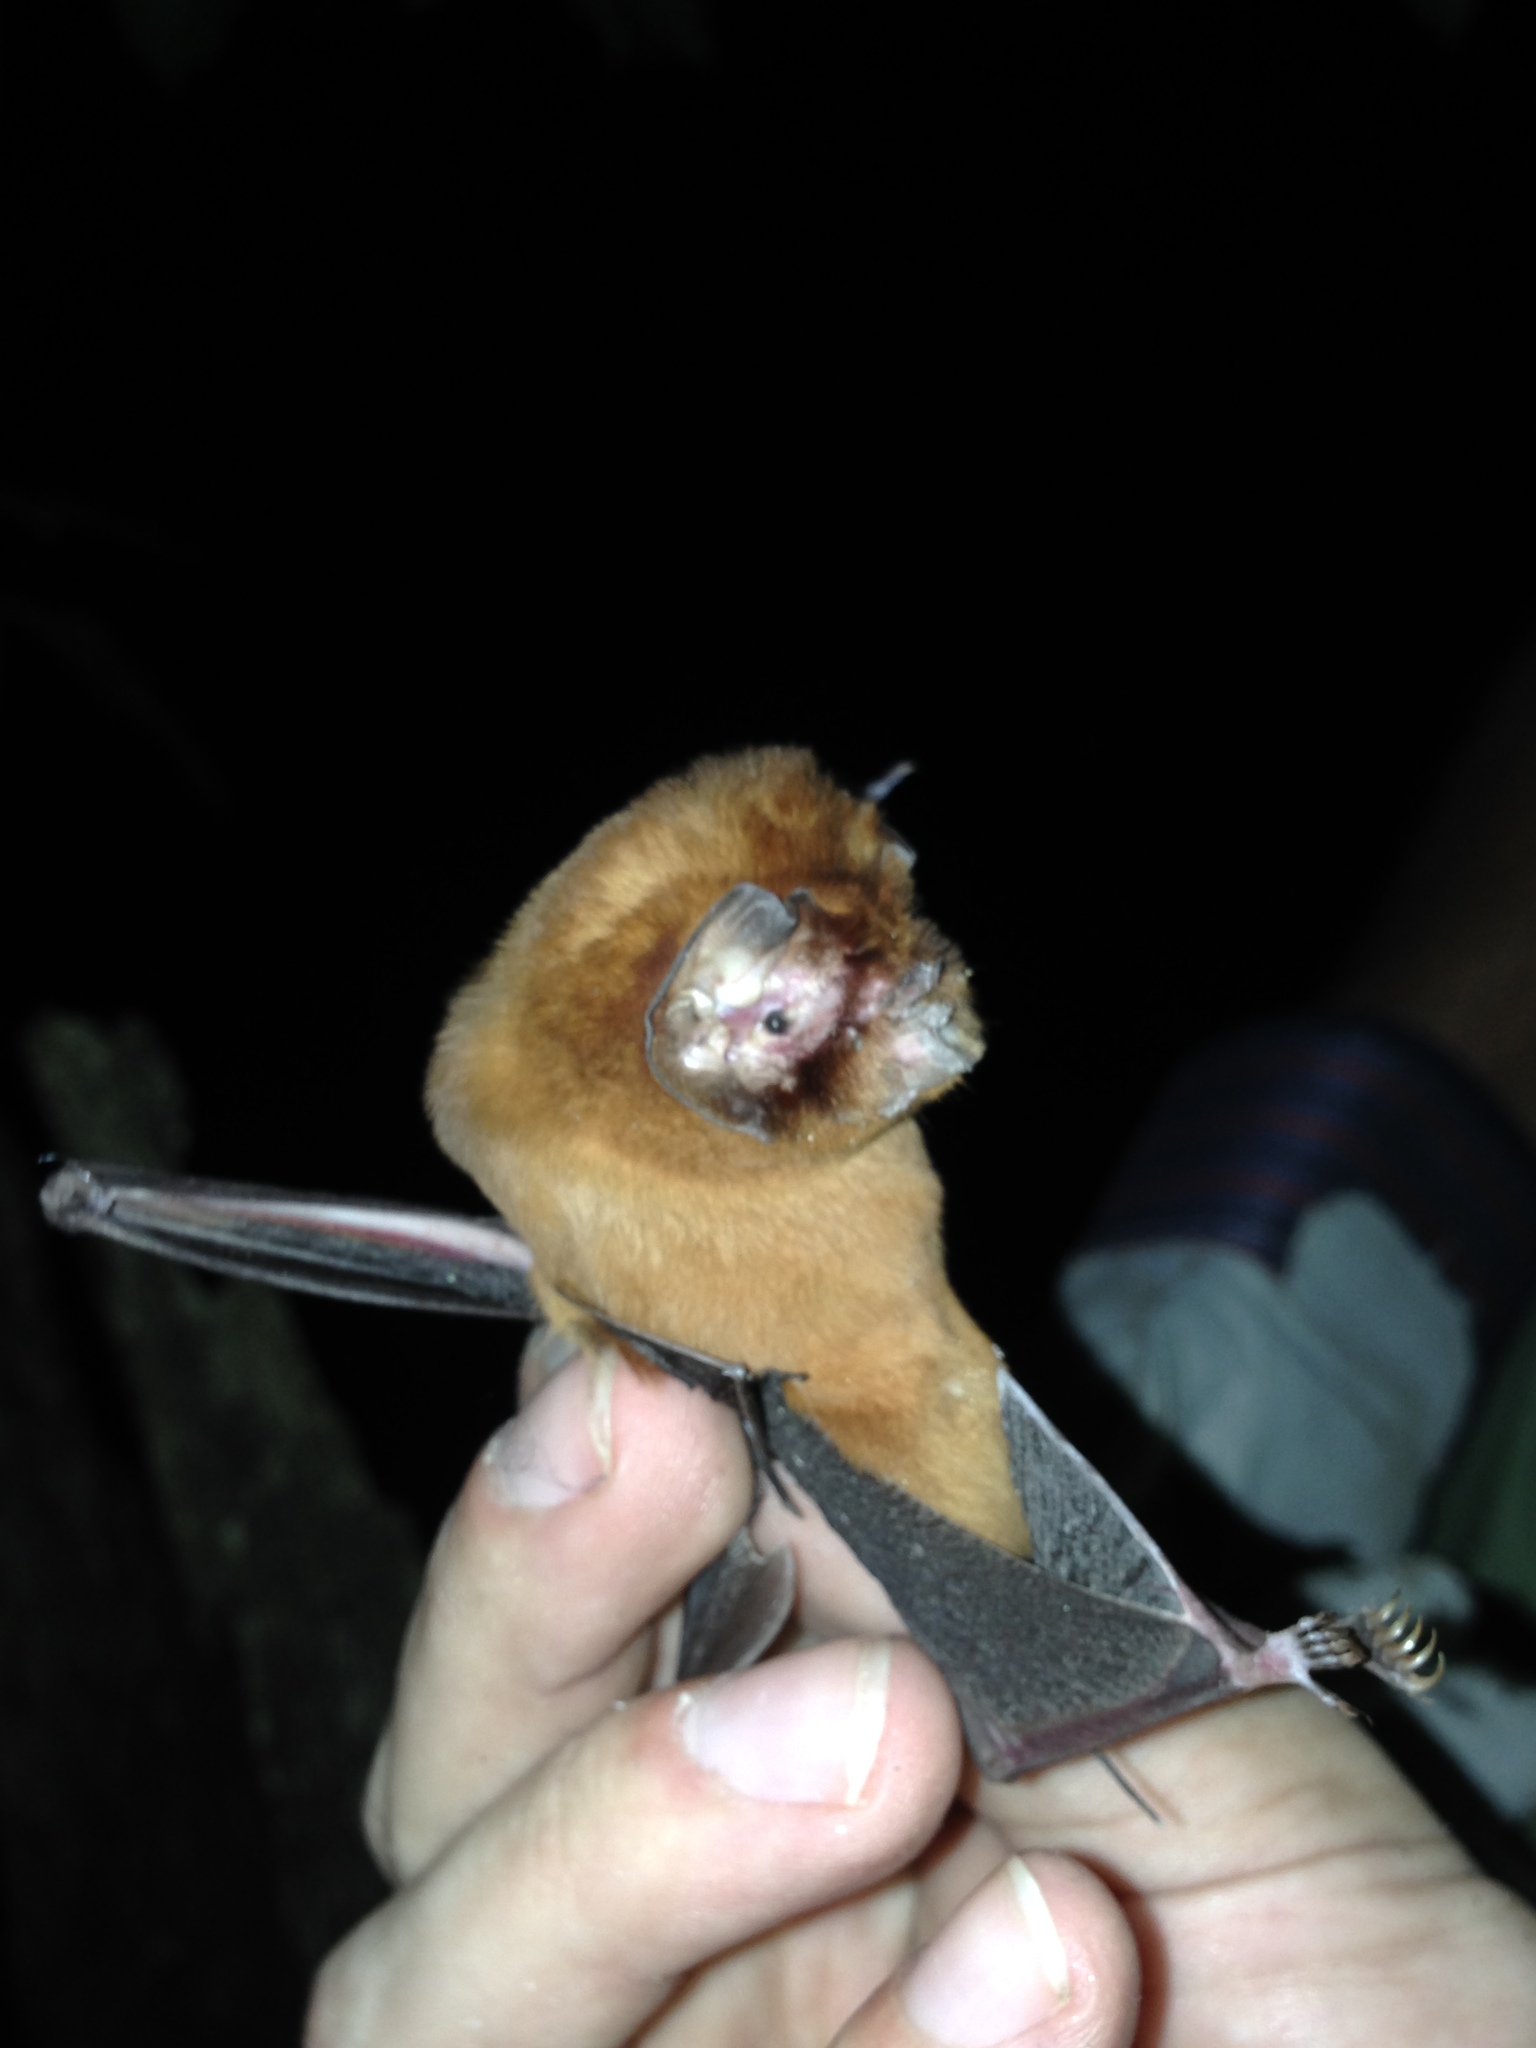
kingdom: Animalia
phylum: Chordata
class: Mammalia
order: Chiroptera
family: Mormoopidae
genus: Mormoops
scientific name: Mormoops blainvillei
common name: Antillean ghost-faced bat
